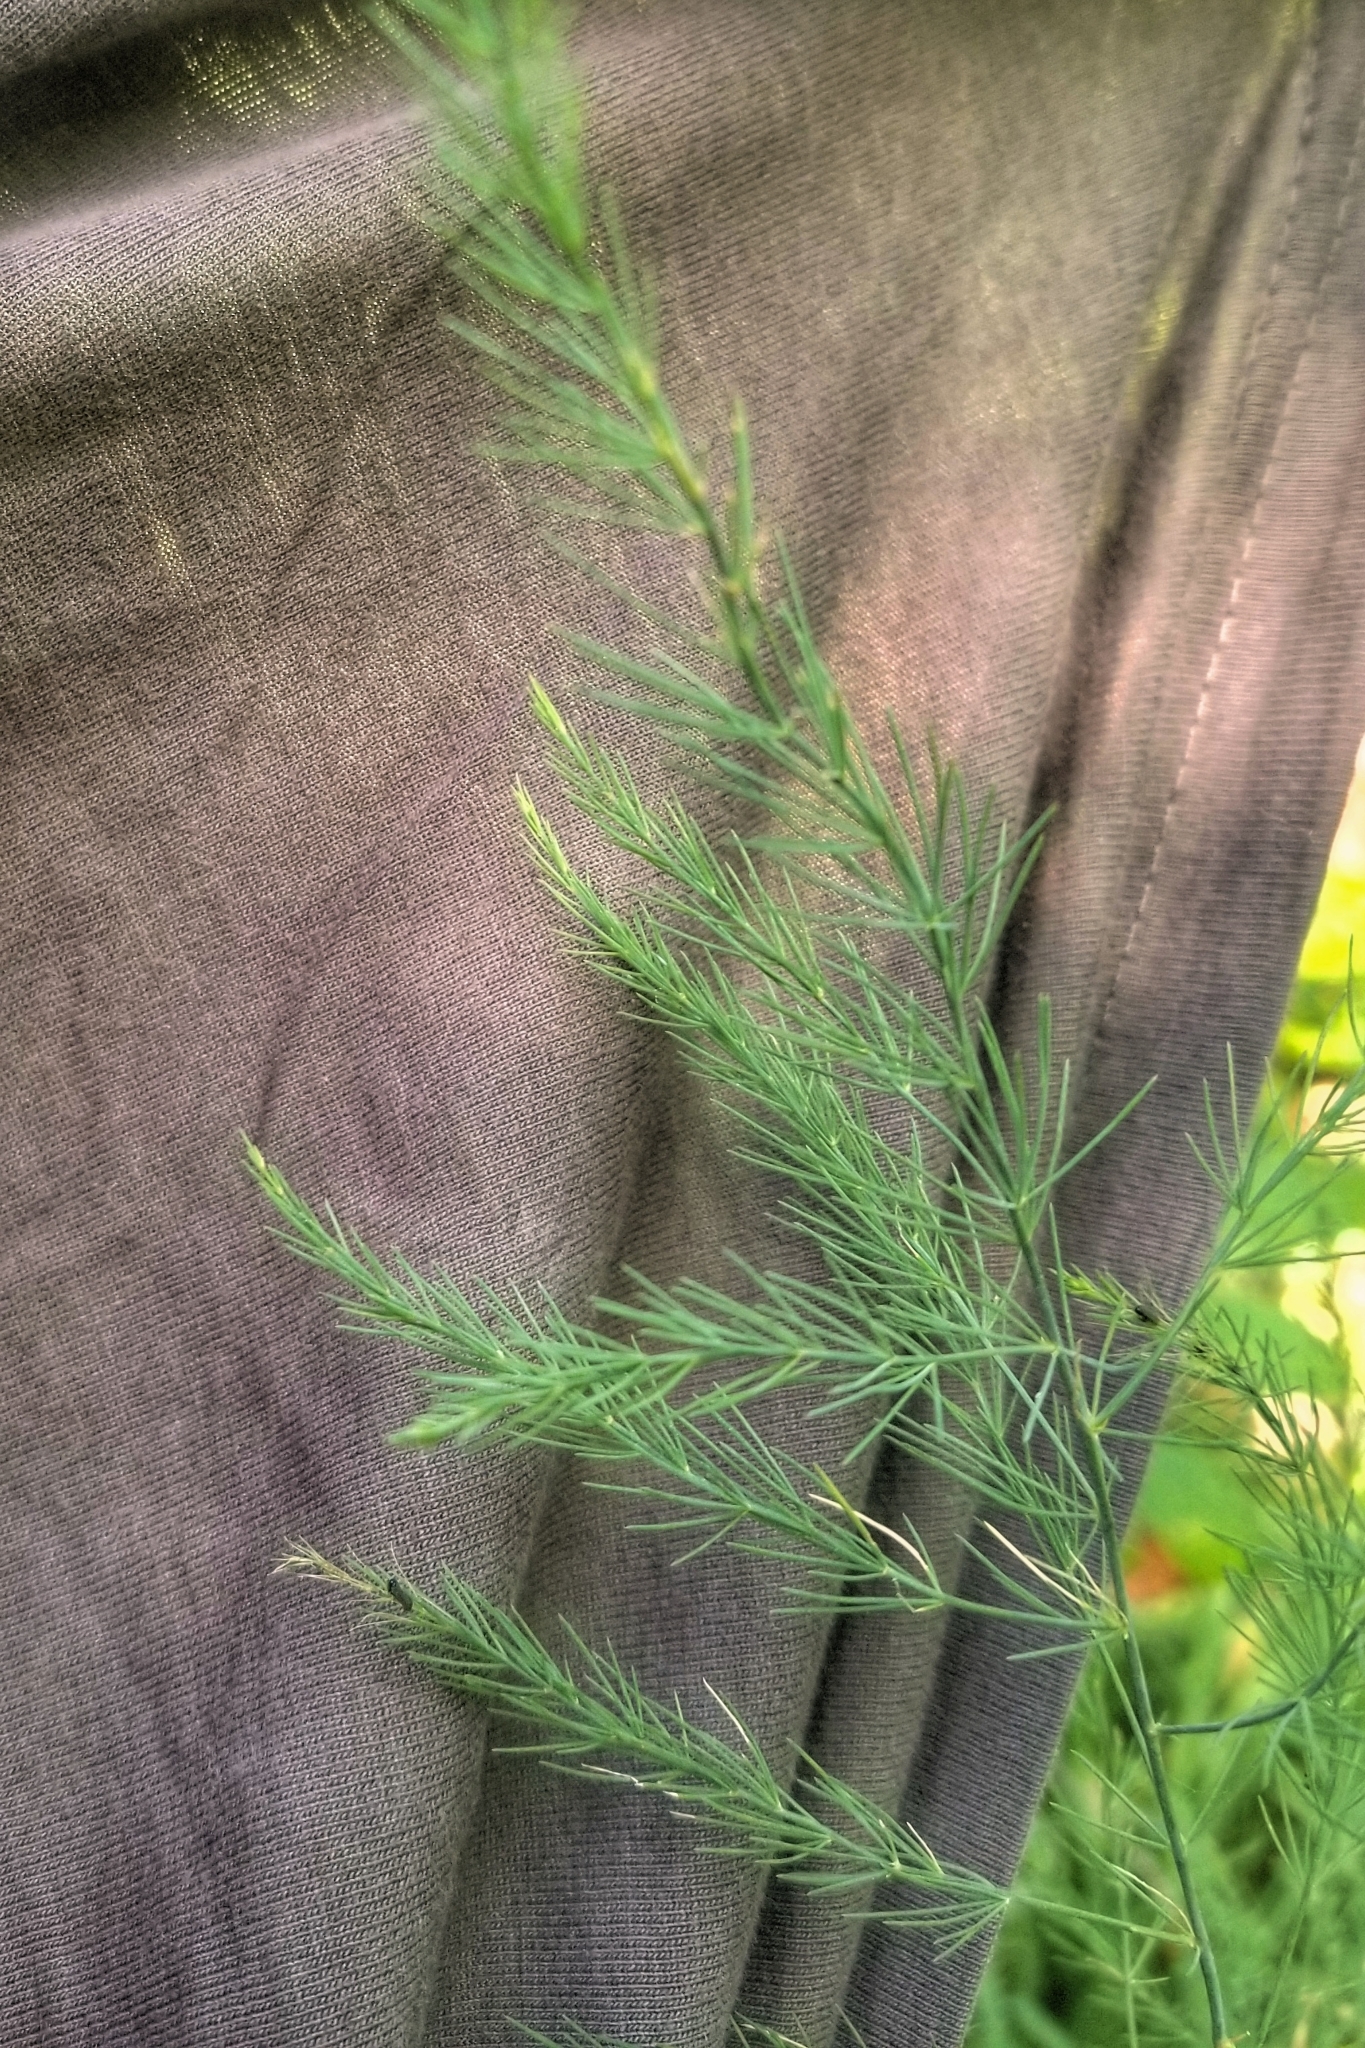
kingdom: Plantae
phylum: Tracheophyta
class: Liliopsida
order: Asparagales
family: Asparagaceae
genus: Asparagus
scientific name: Asparagus officinalis
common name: Garden asparagus
